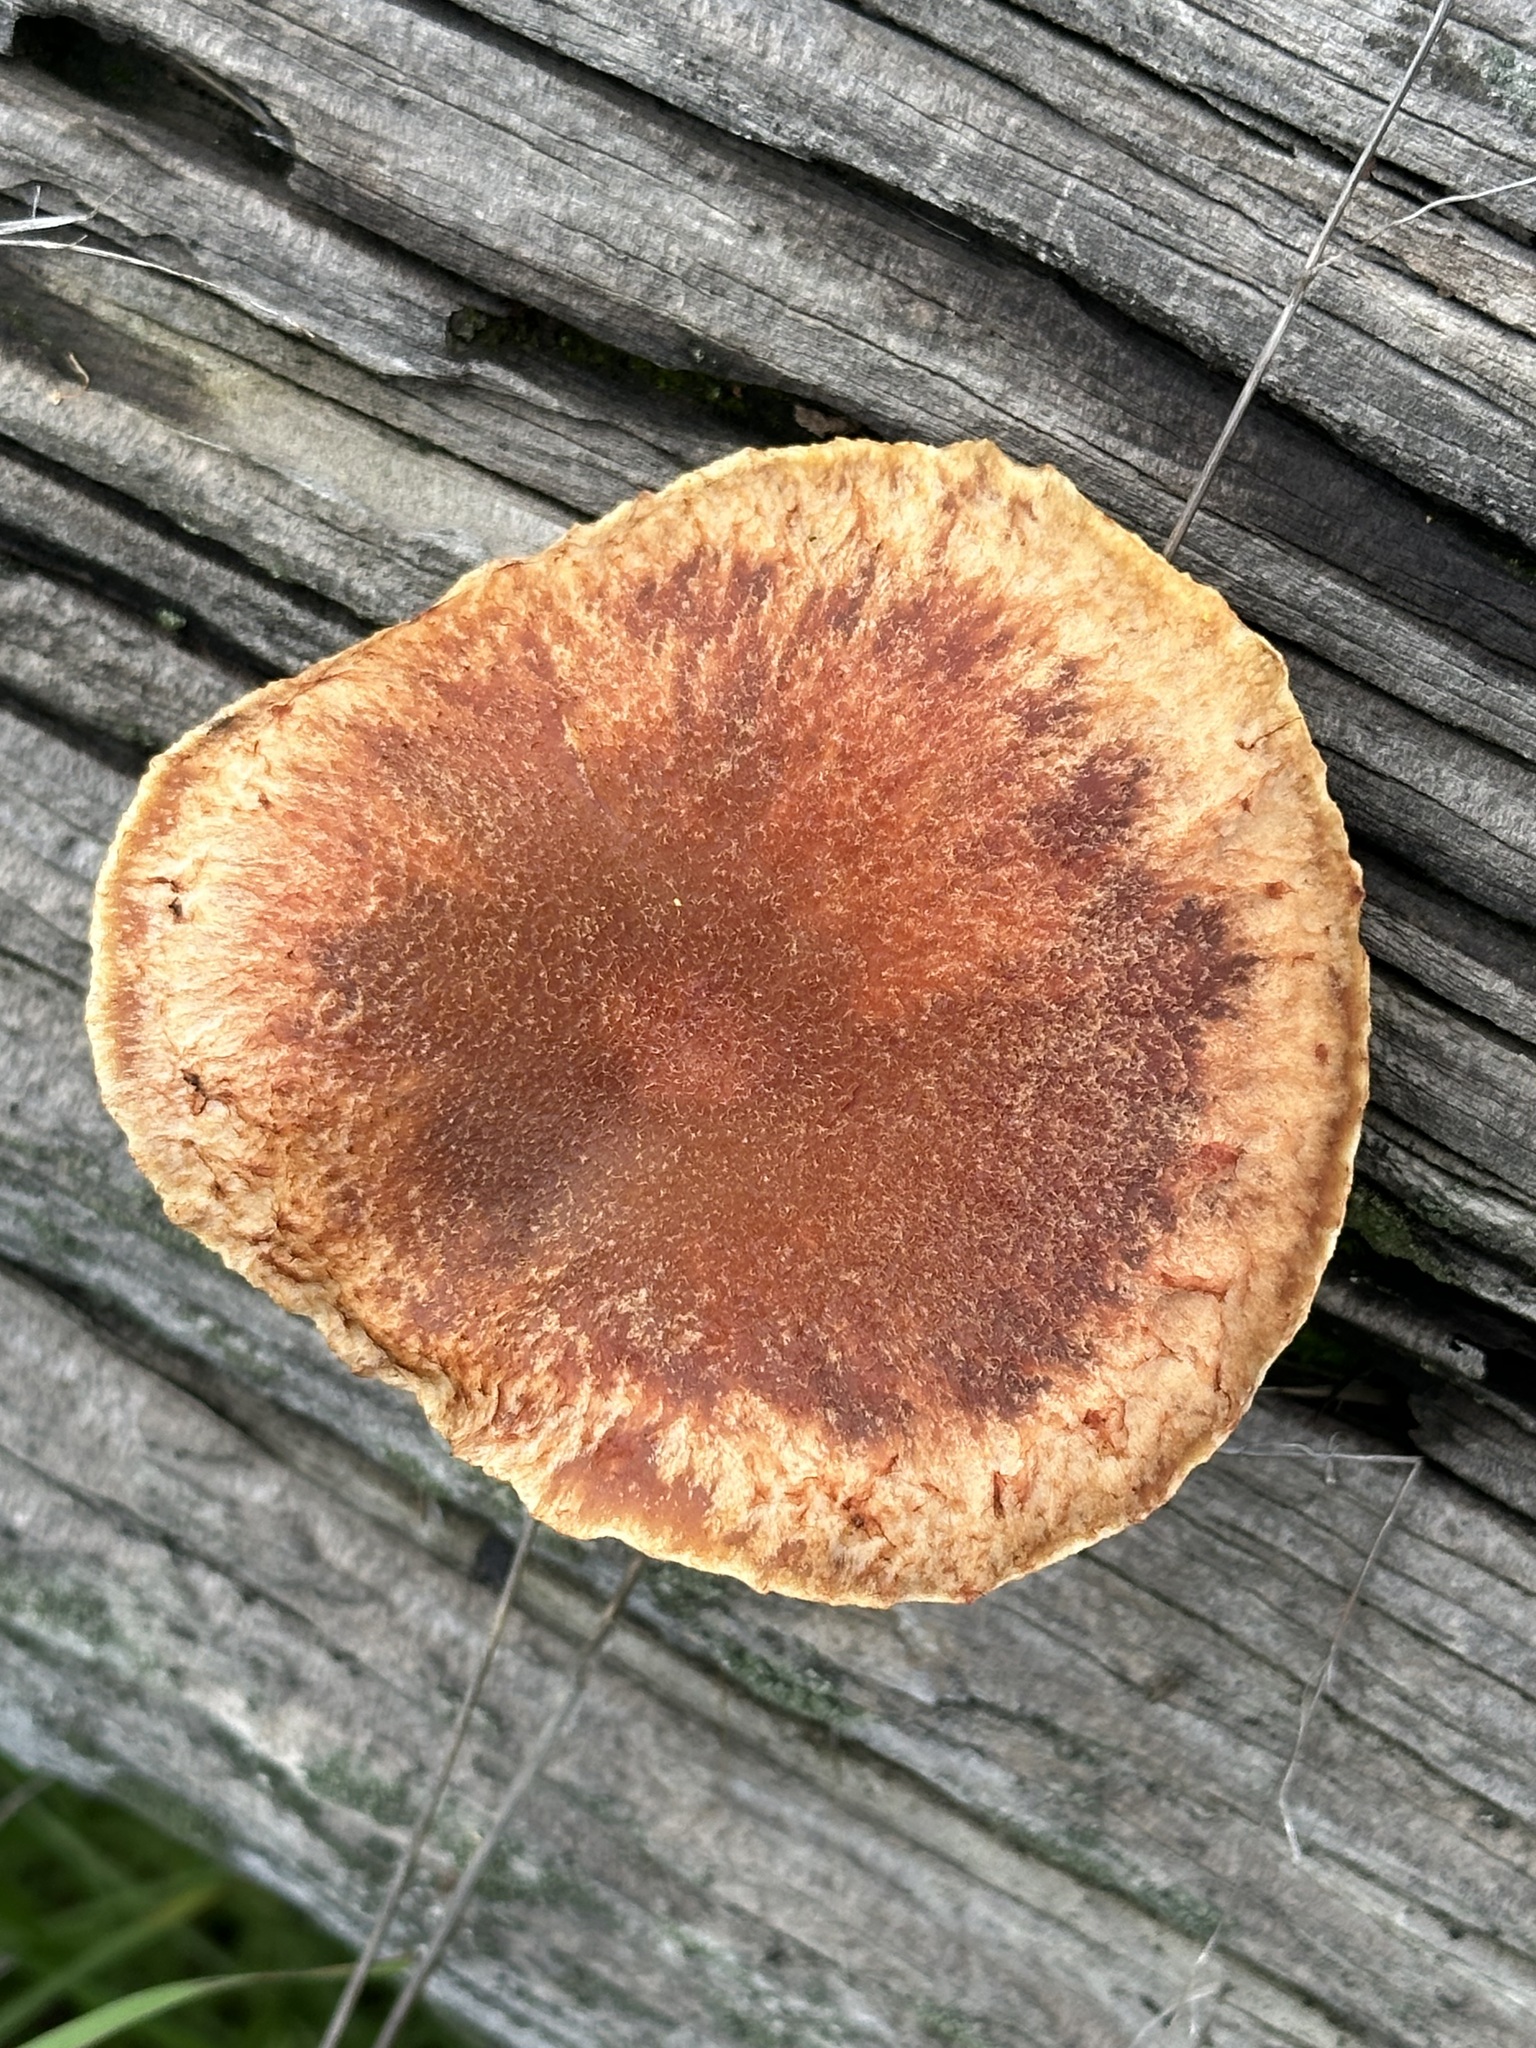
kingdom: Fungi
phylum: Basidiomycota
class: Agaricomycetes
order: Agaricales
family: Hymenogastraceae
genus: Gymnopilus
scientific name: Gymnopilus luteofolius
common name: Yellow-gilled gymnopilus
